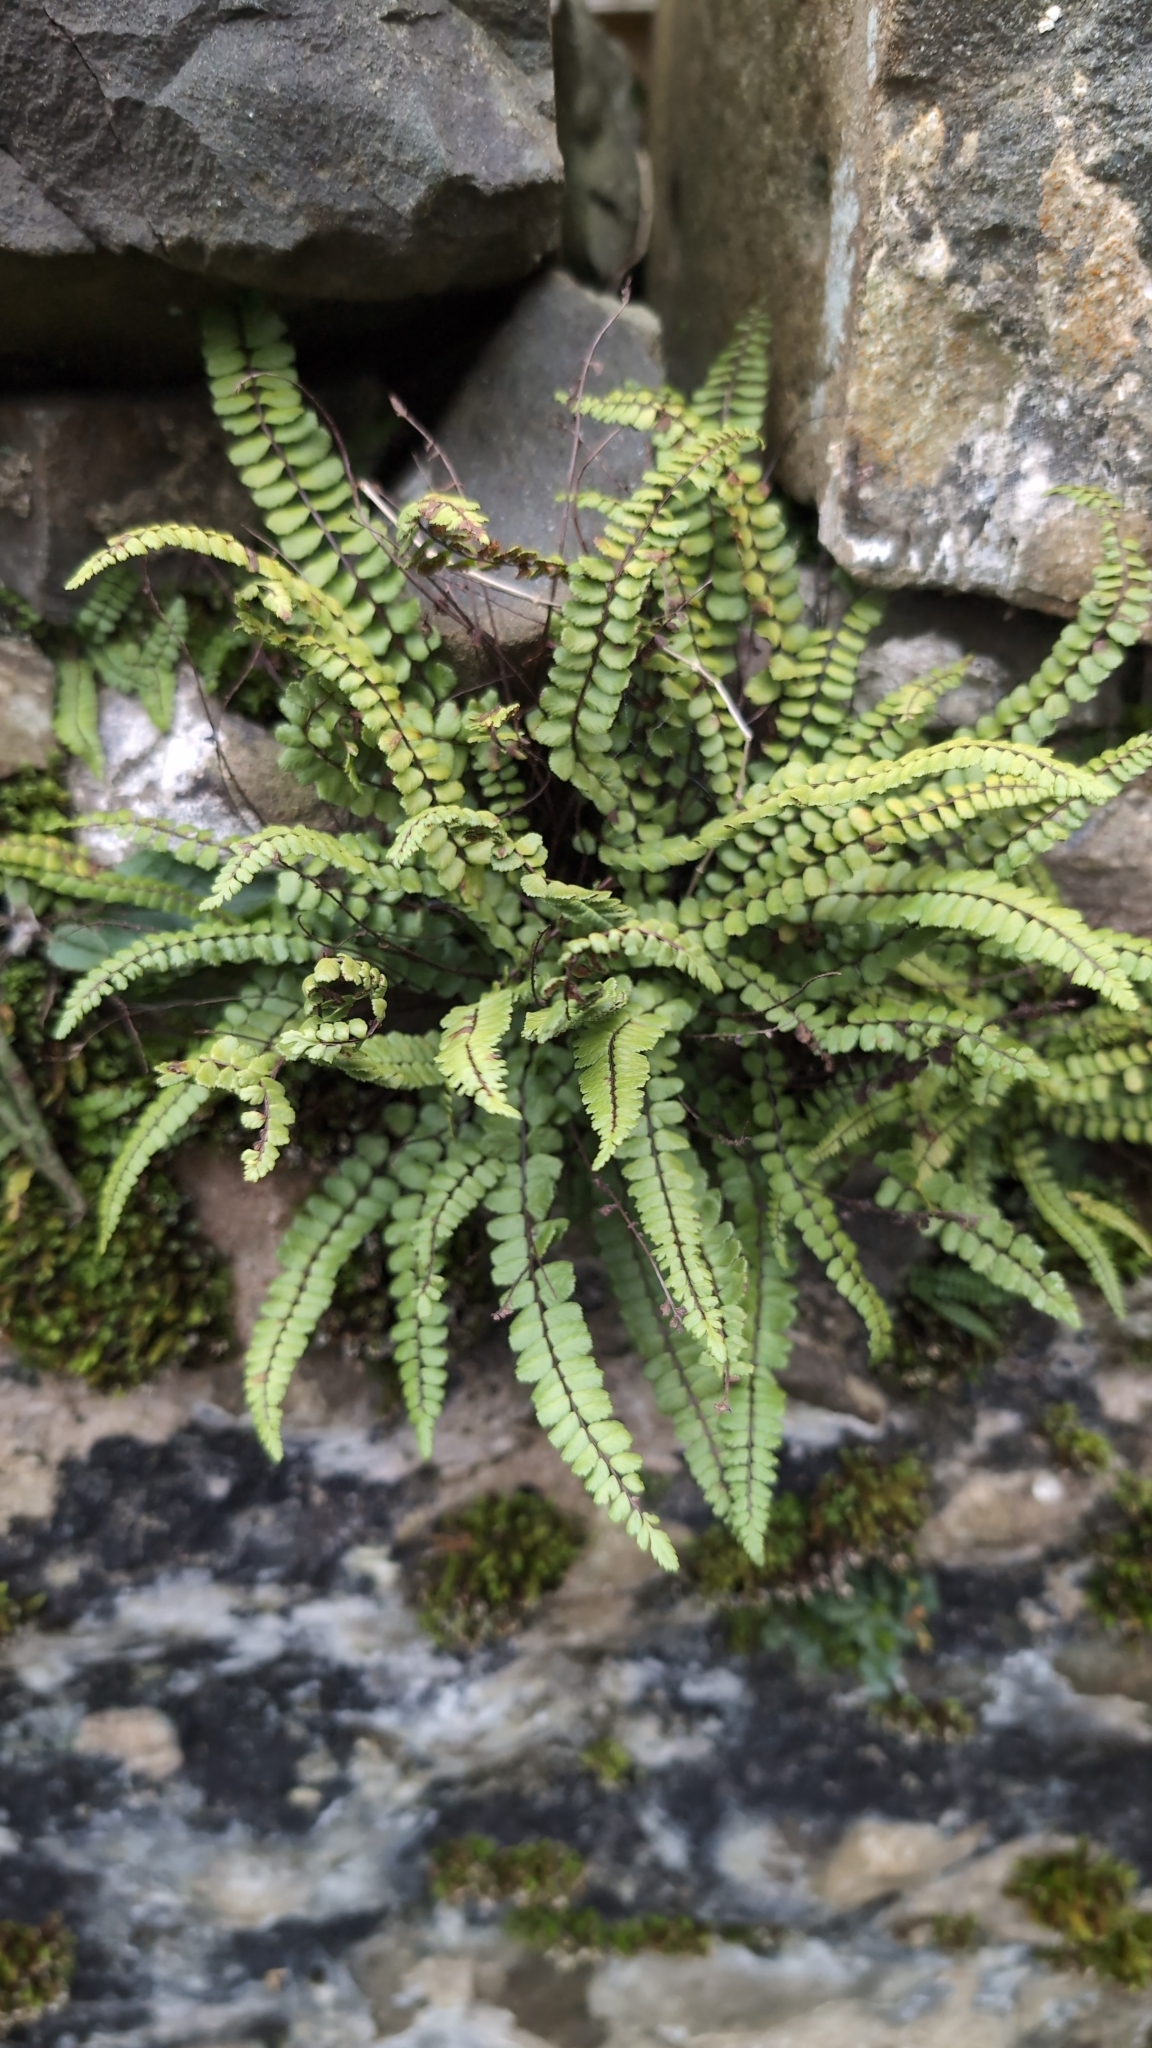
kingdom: Plantae
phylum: Tracheophyta
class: Polypodiopsida
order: Polypodiales
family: Aspleniaceae
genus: Asplenium
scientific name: Asplenium trichomanes
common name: Maidenhair spleenwort
